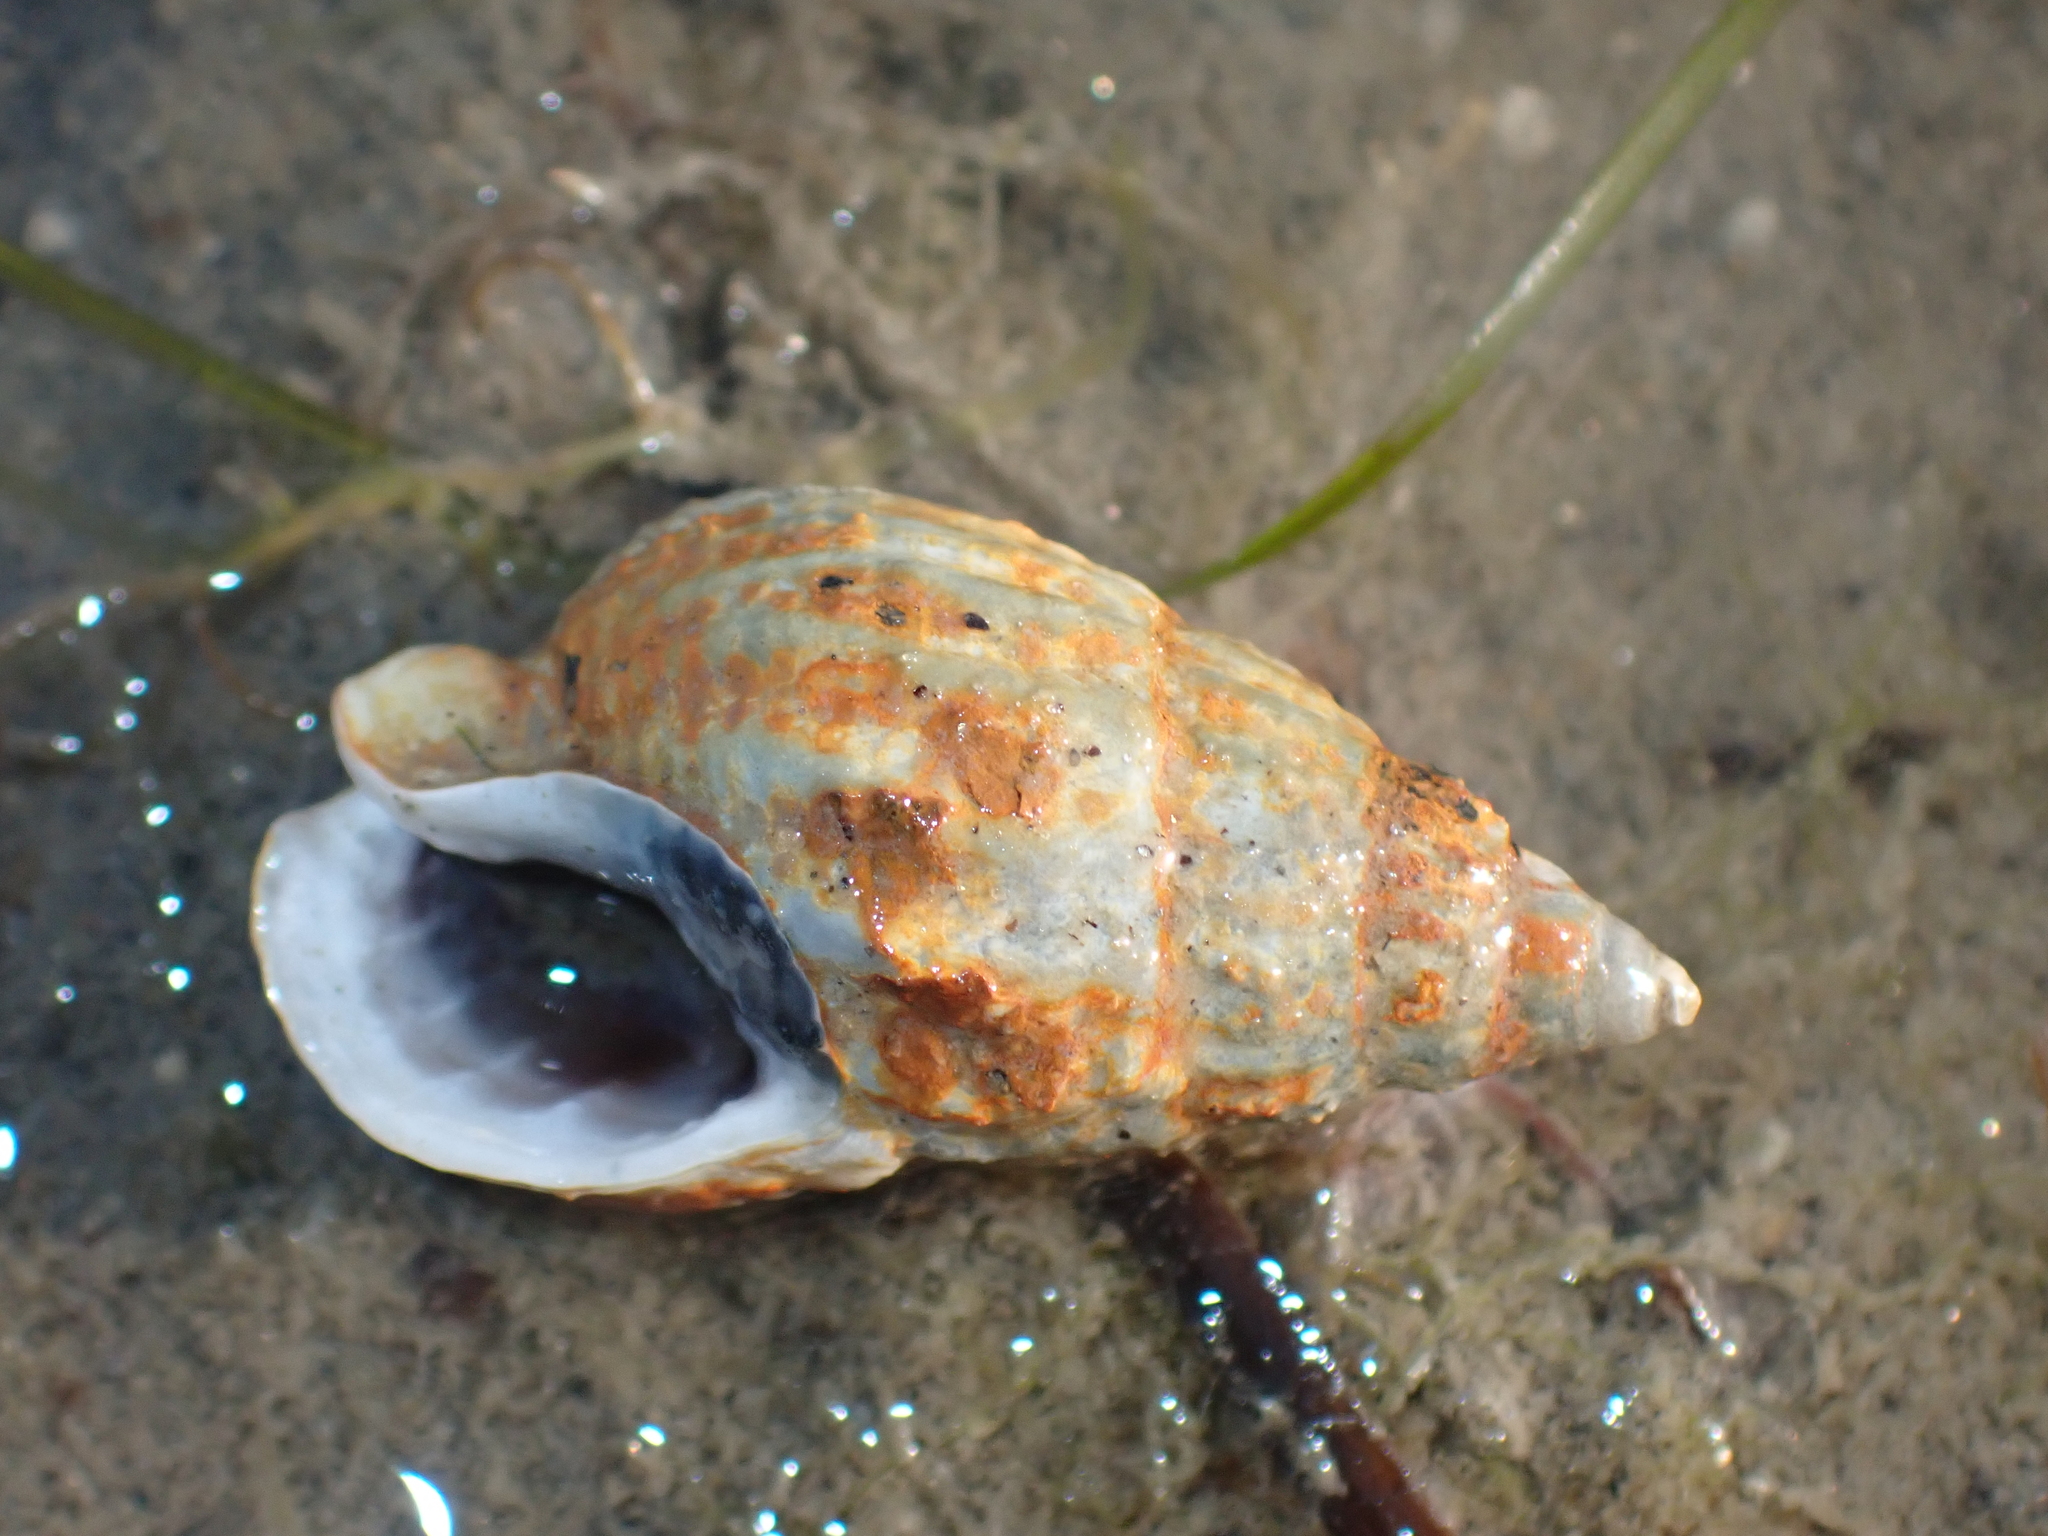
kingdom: Animalia
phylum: Mollusca
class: Gastropoda
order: Neogastropoda
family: Nassariidae
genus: Tritia
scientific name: Tritia reticulata
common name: Netted dog whelk
